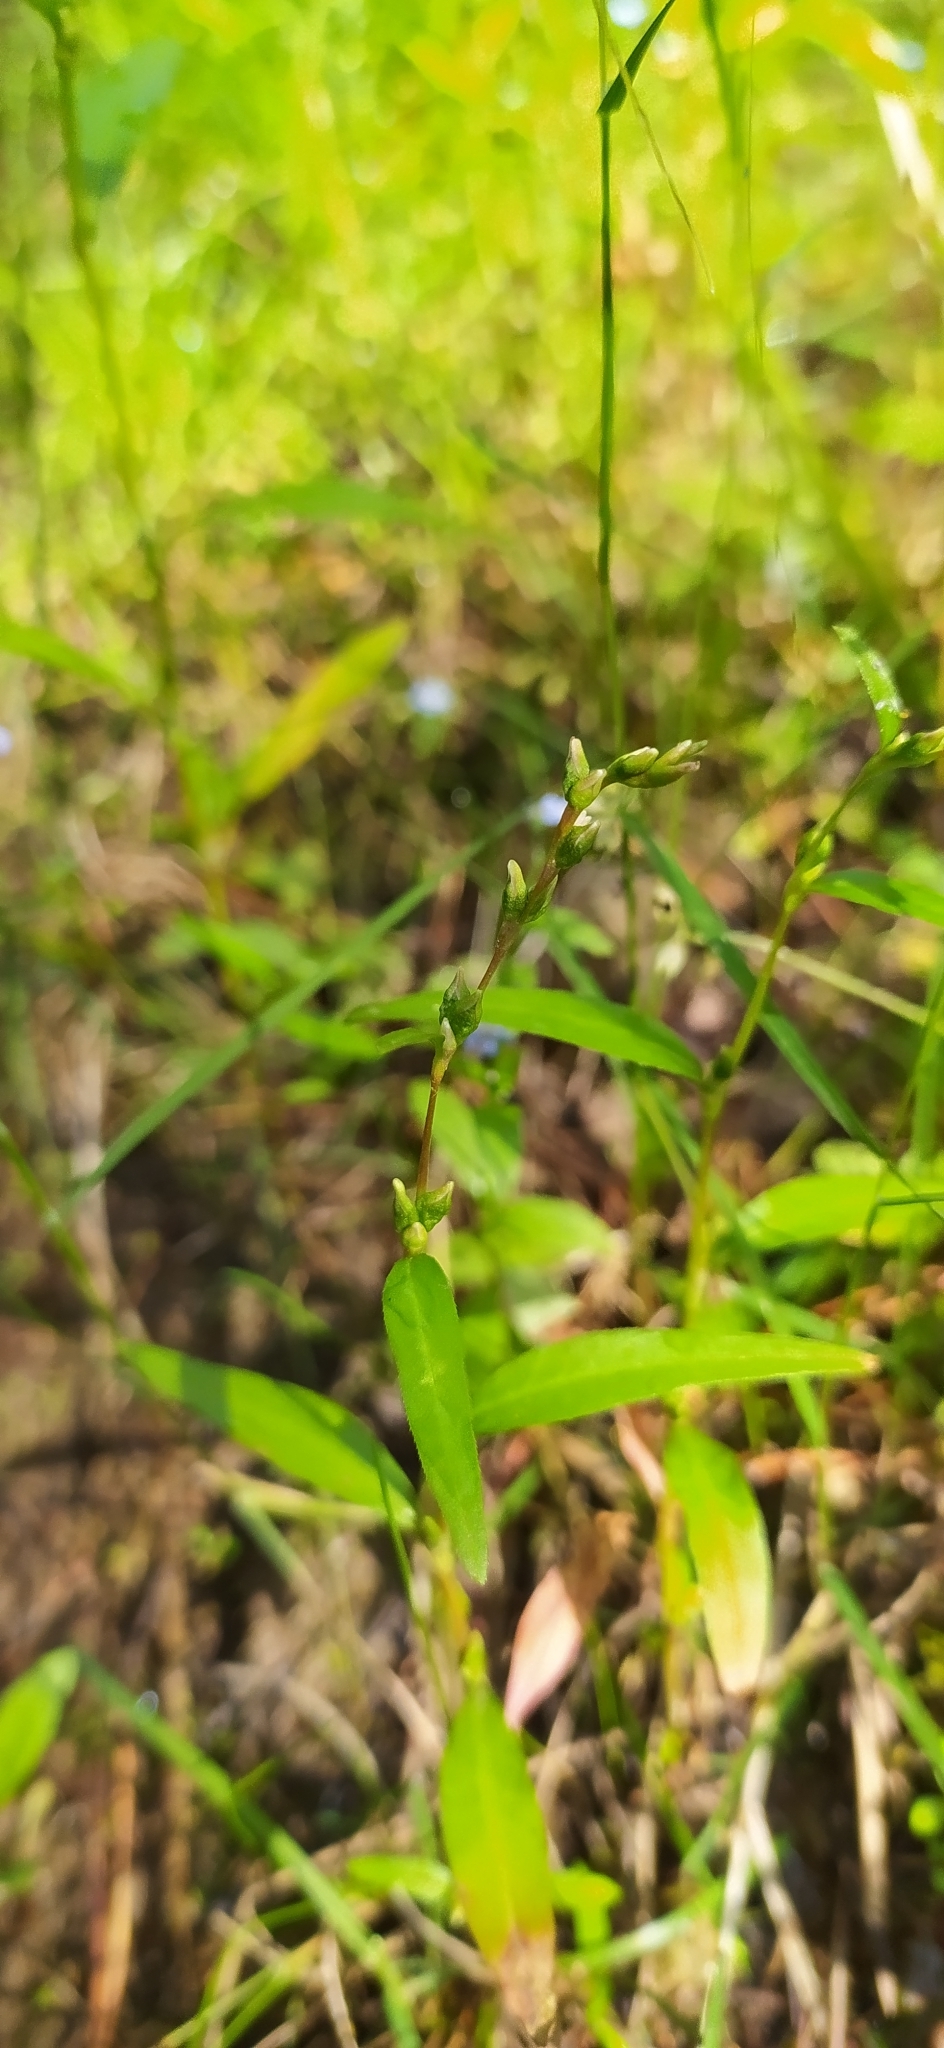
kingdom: Plantae
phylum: Tracheophyta
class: Magnoliopsida
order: Caryophyllales
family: Polygonaceae
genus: Persicaria
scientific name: Persicaria hydropiper
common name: Water-pepper
